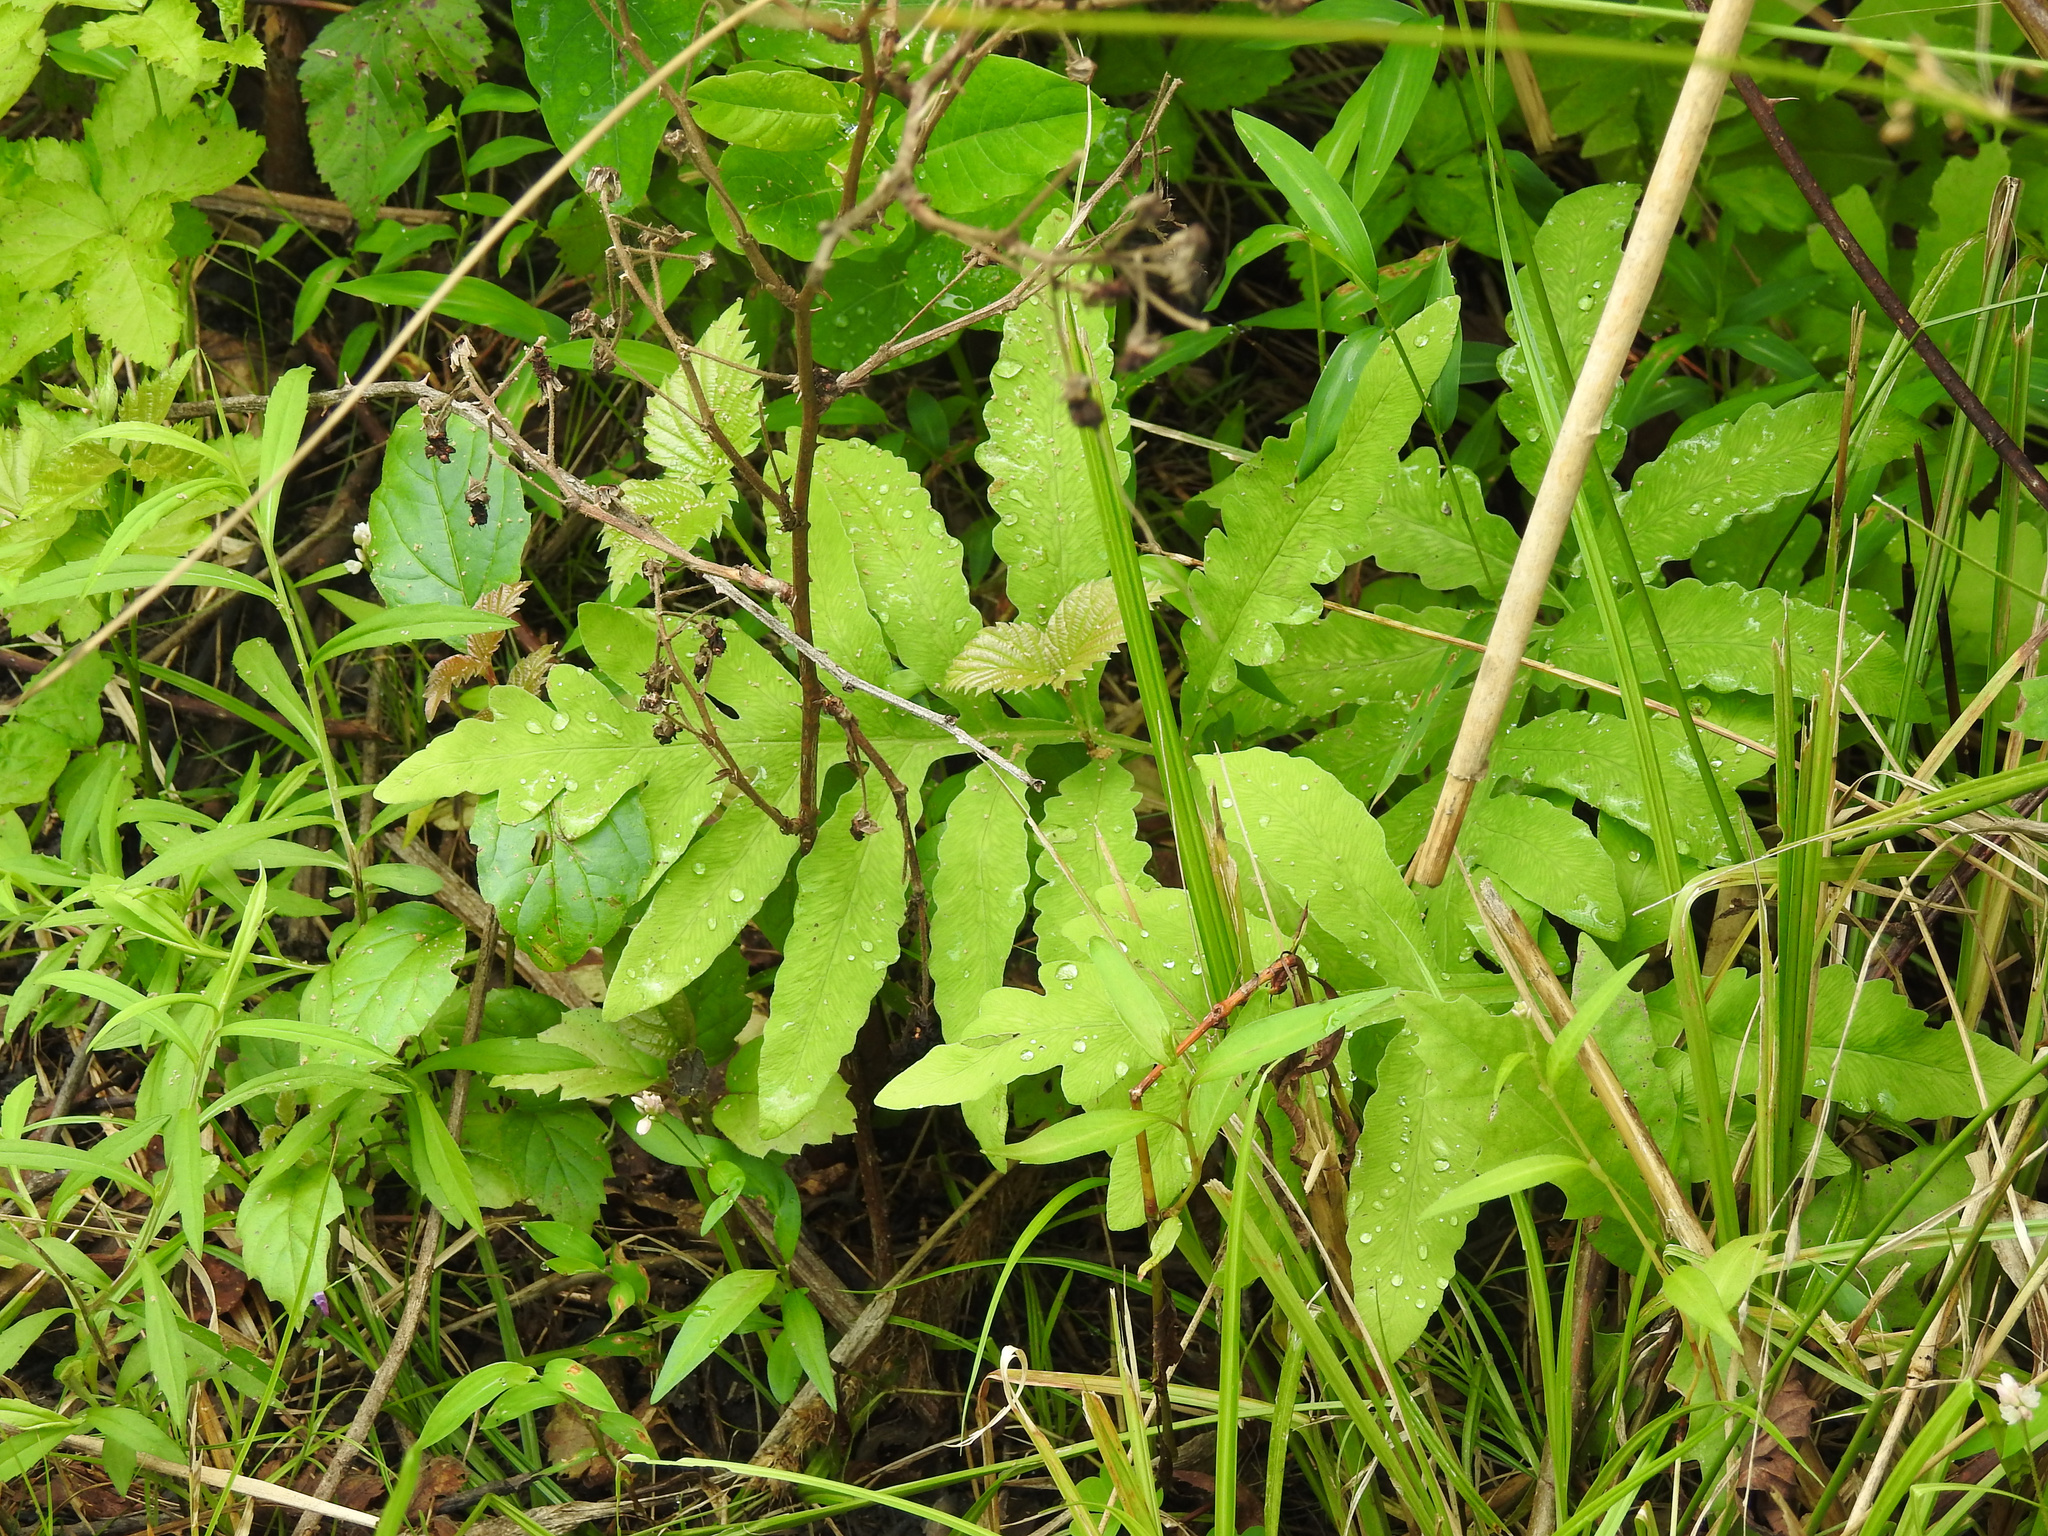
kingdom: Plantae
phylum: Tracheophyta
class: Polypodiopsida
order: Polypodiales
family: Onocleaceae
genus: Onoclea
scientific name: Onoclea sensibilis
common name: Sensitive fern
